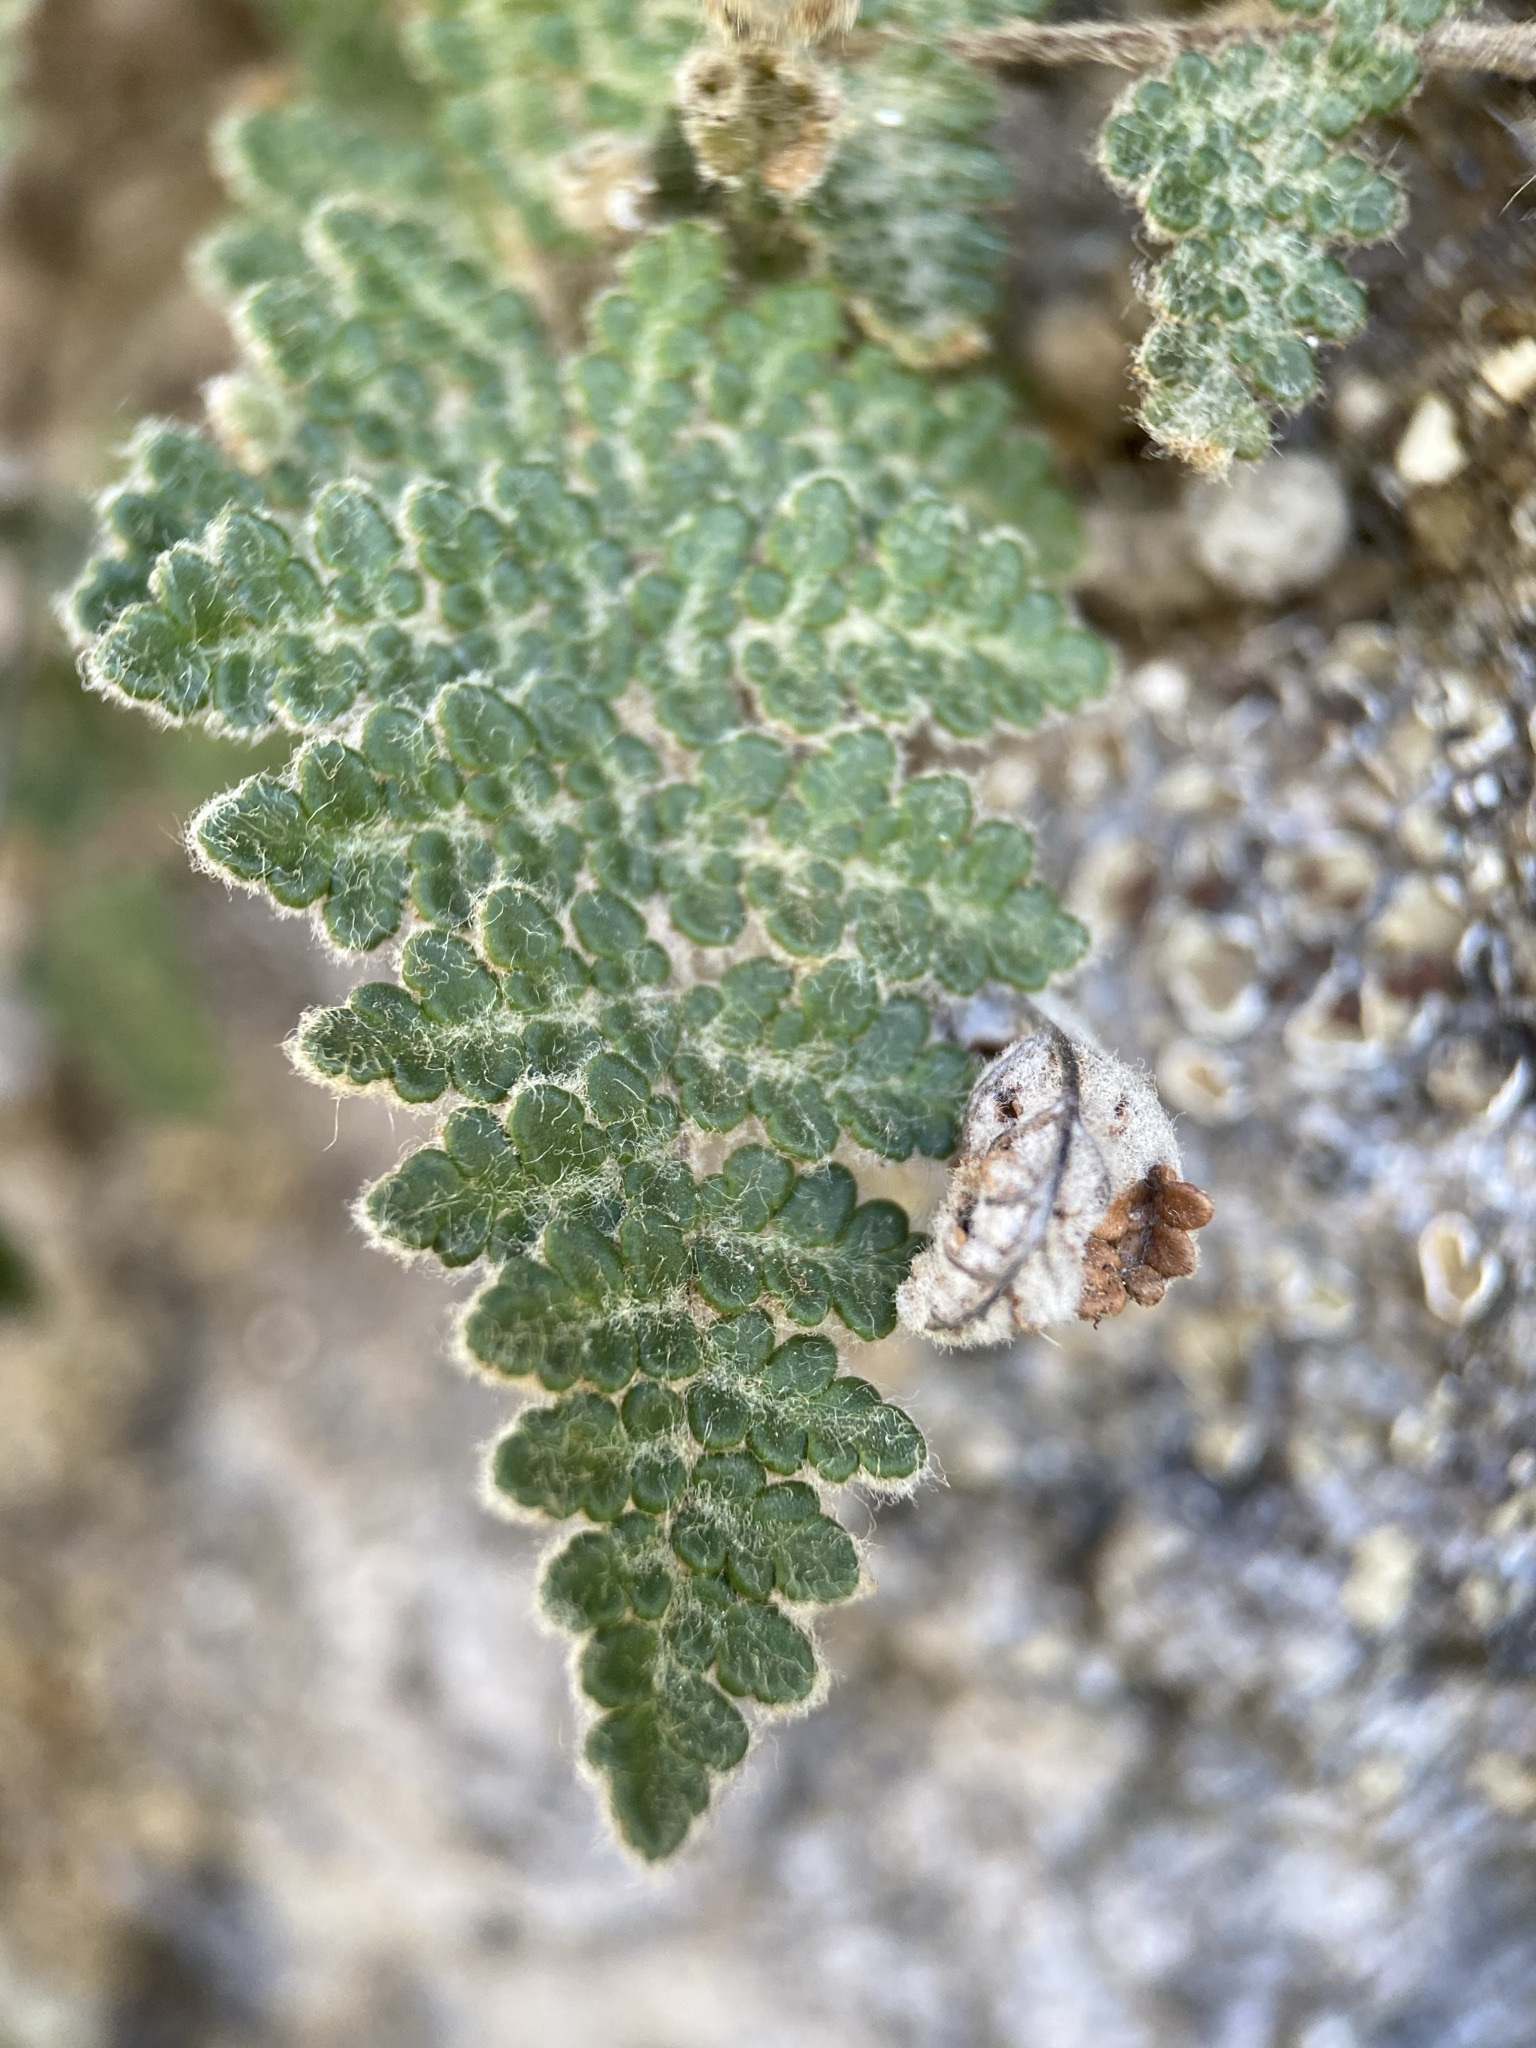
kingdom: Plantae
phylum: Tracheophyta
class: Polypodiopsida
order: Polypodiales
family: Pteridaceae
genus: Myriopteris
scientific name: Myriopteris gracilis
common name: Fee's lip fern
